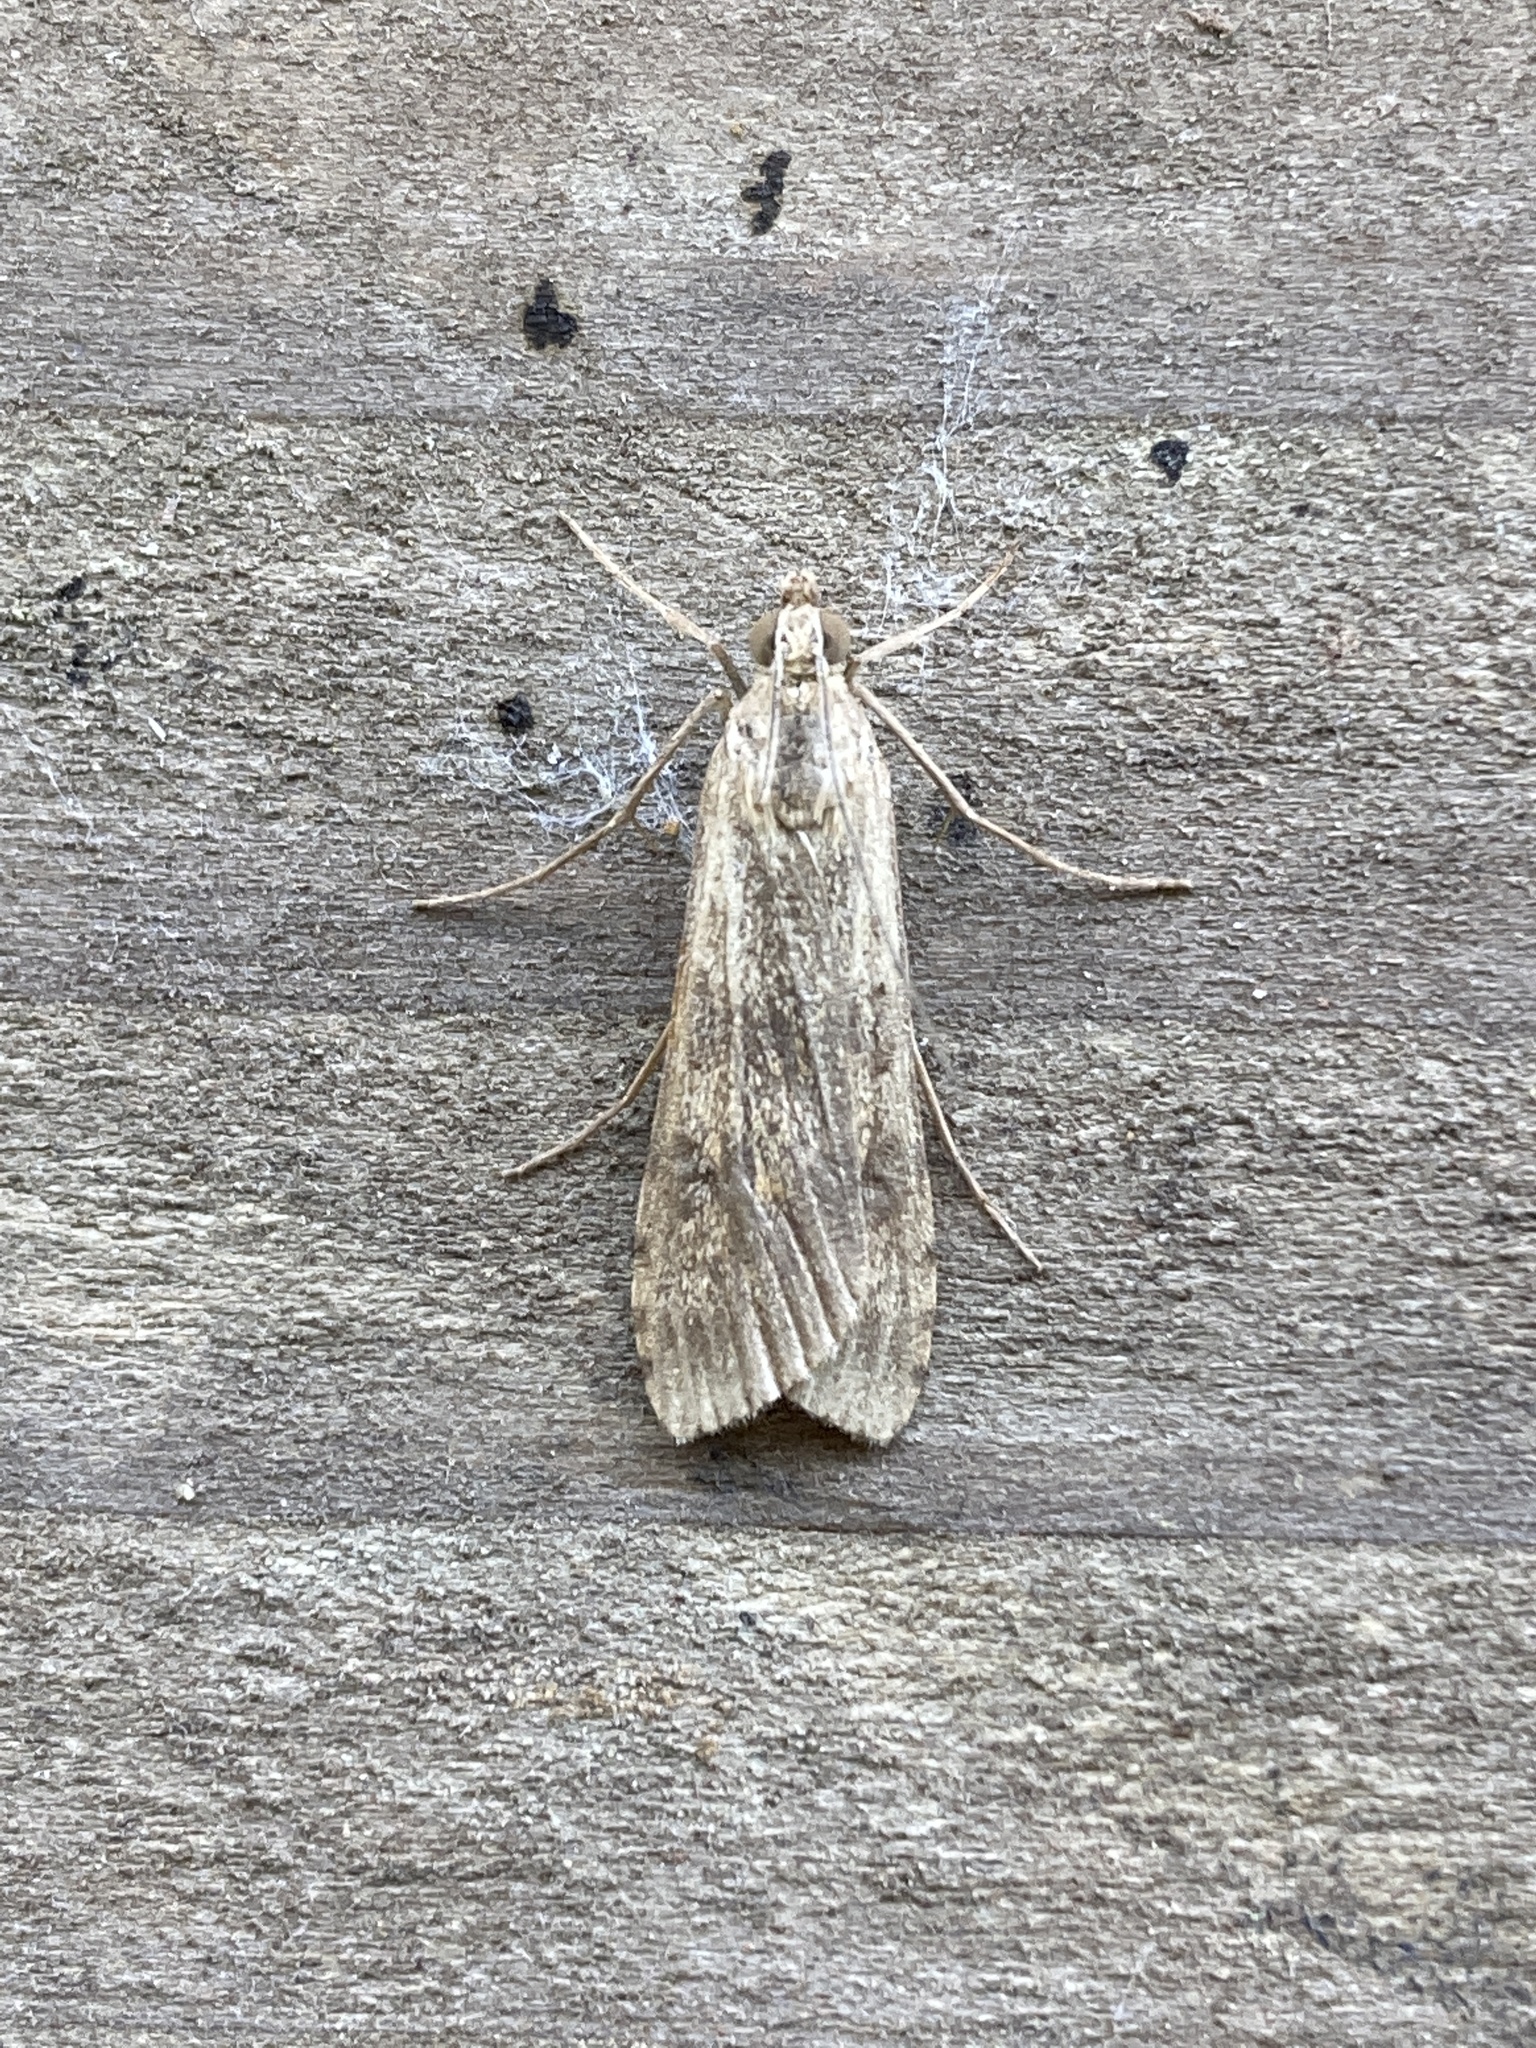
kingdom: Animalia
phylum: Arthropoda
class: Insecta
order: Lepidoptera
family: Crambidae
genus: Nomophila
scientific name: Nomophila noctuella
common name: Rush veneer
